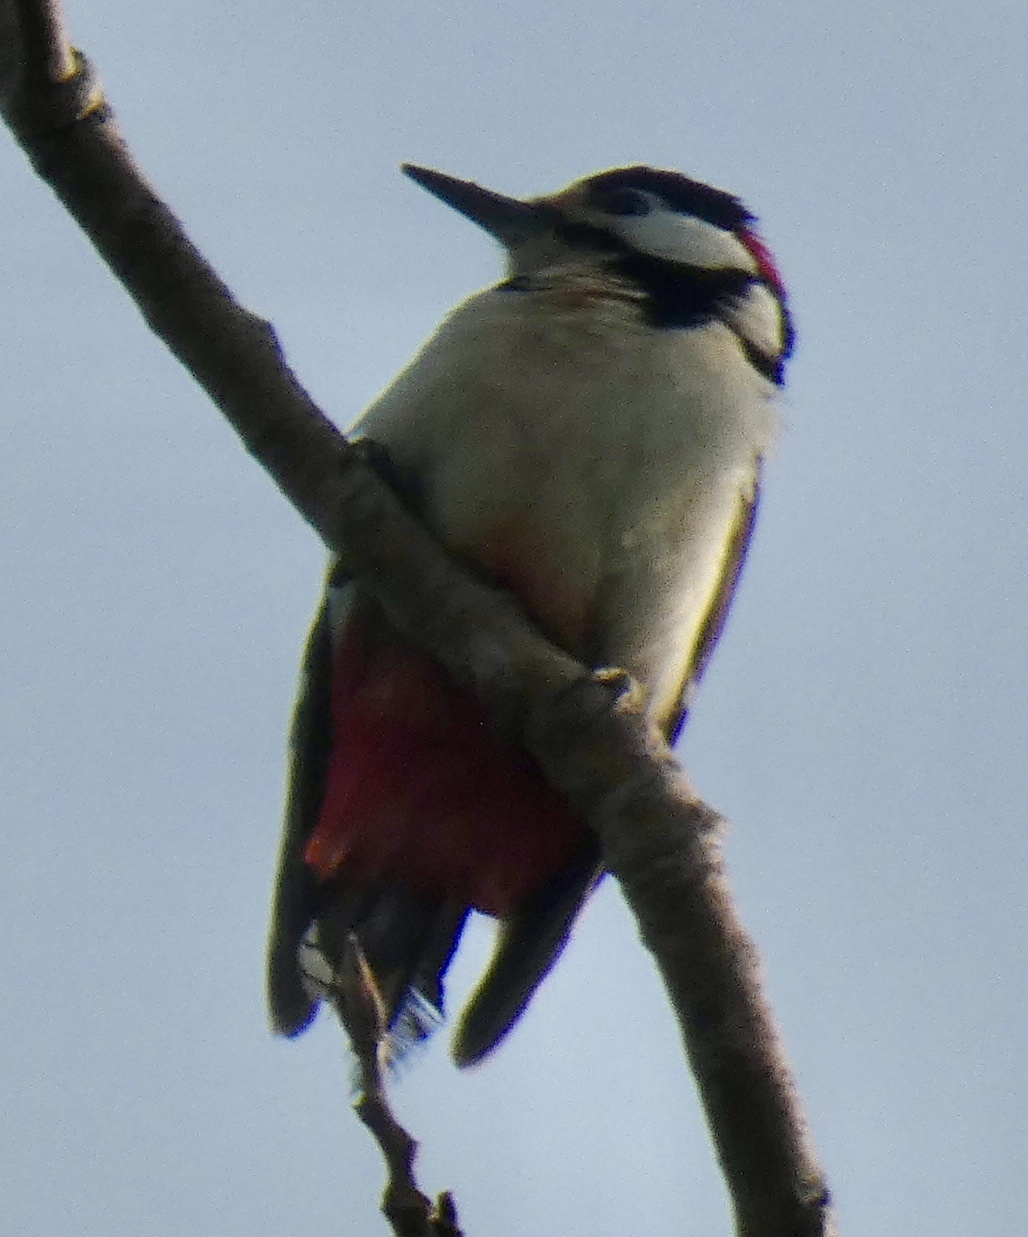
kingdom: Animalia
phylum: Chordata
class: Aves
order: Piciformes
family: Picidae
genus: Dendrocopos
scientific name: Dendrocopos major
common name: Great spotted woodpecker
